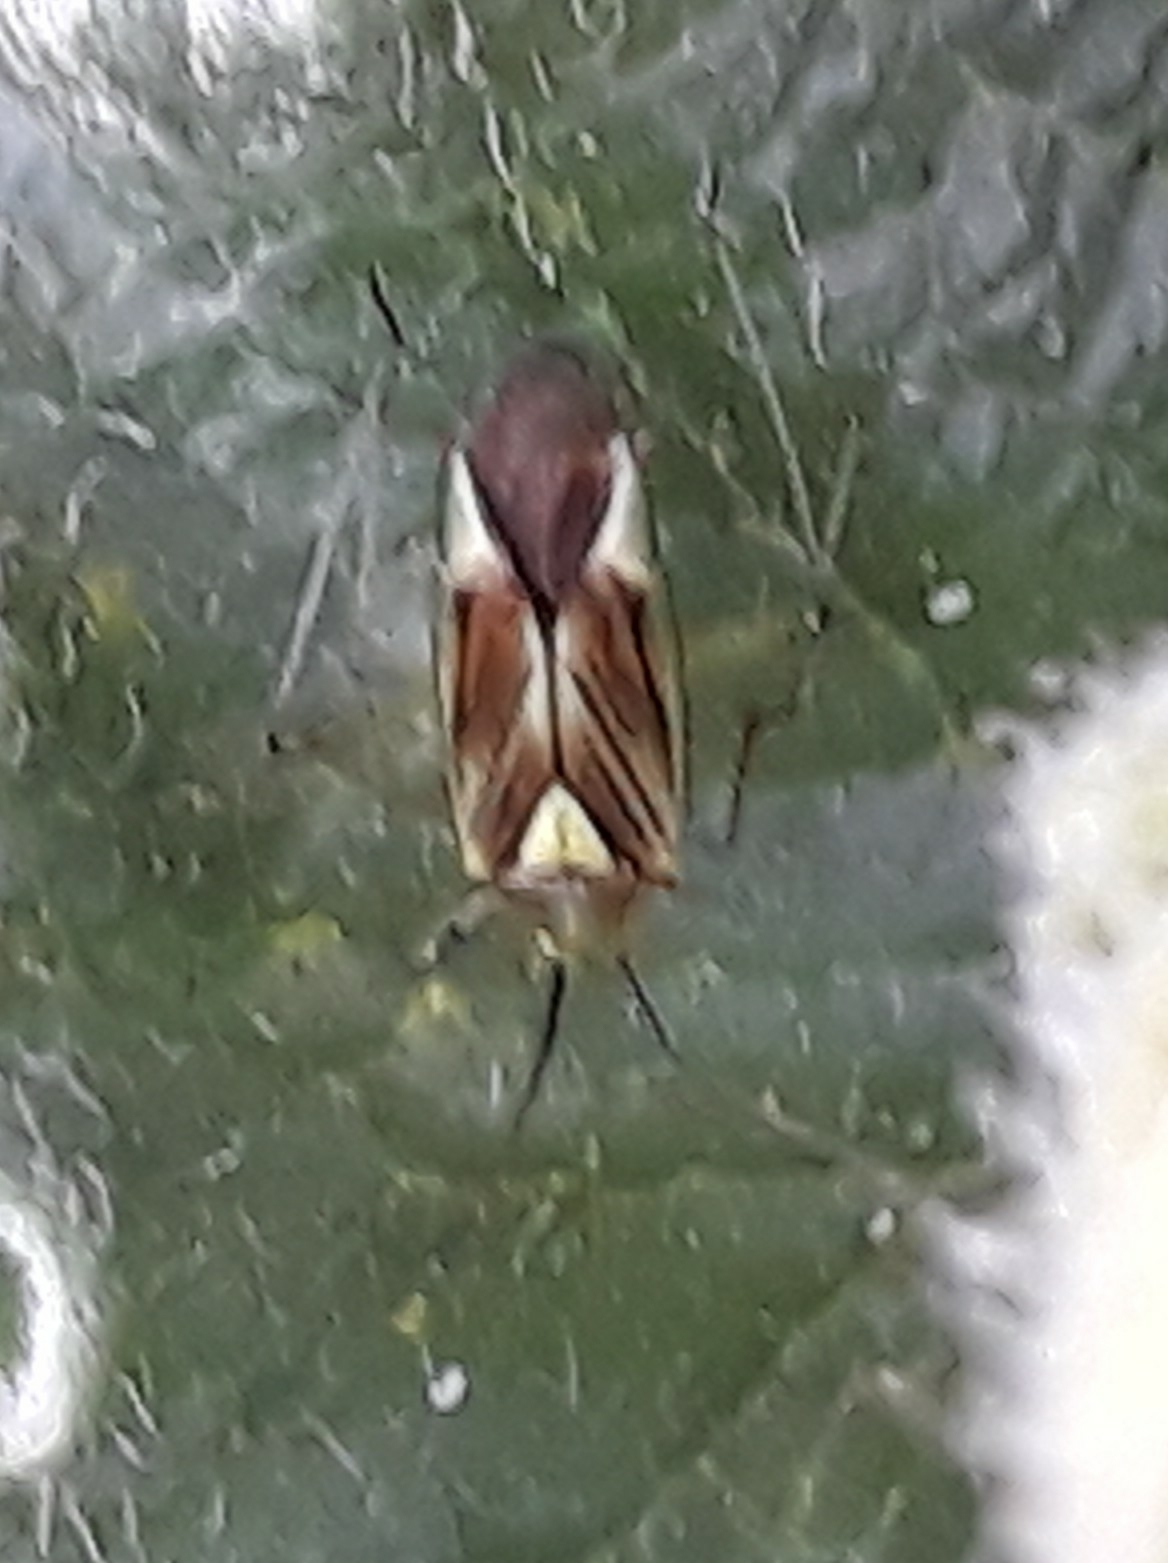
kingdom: Animalia
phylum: Arthropoda
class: Insecta
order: Hemiptera
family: Miridae
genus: Closterotomus
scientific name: Closterotomus tunetanus
